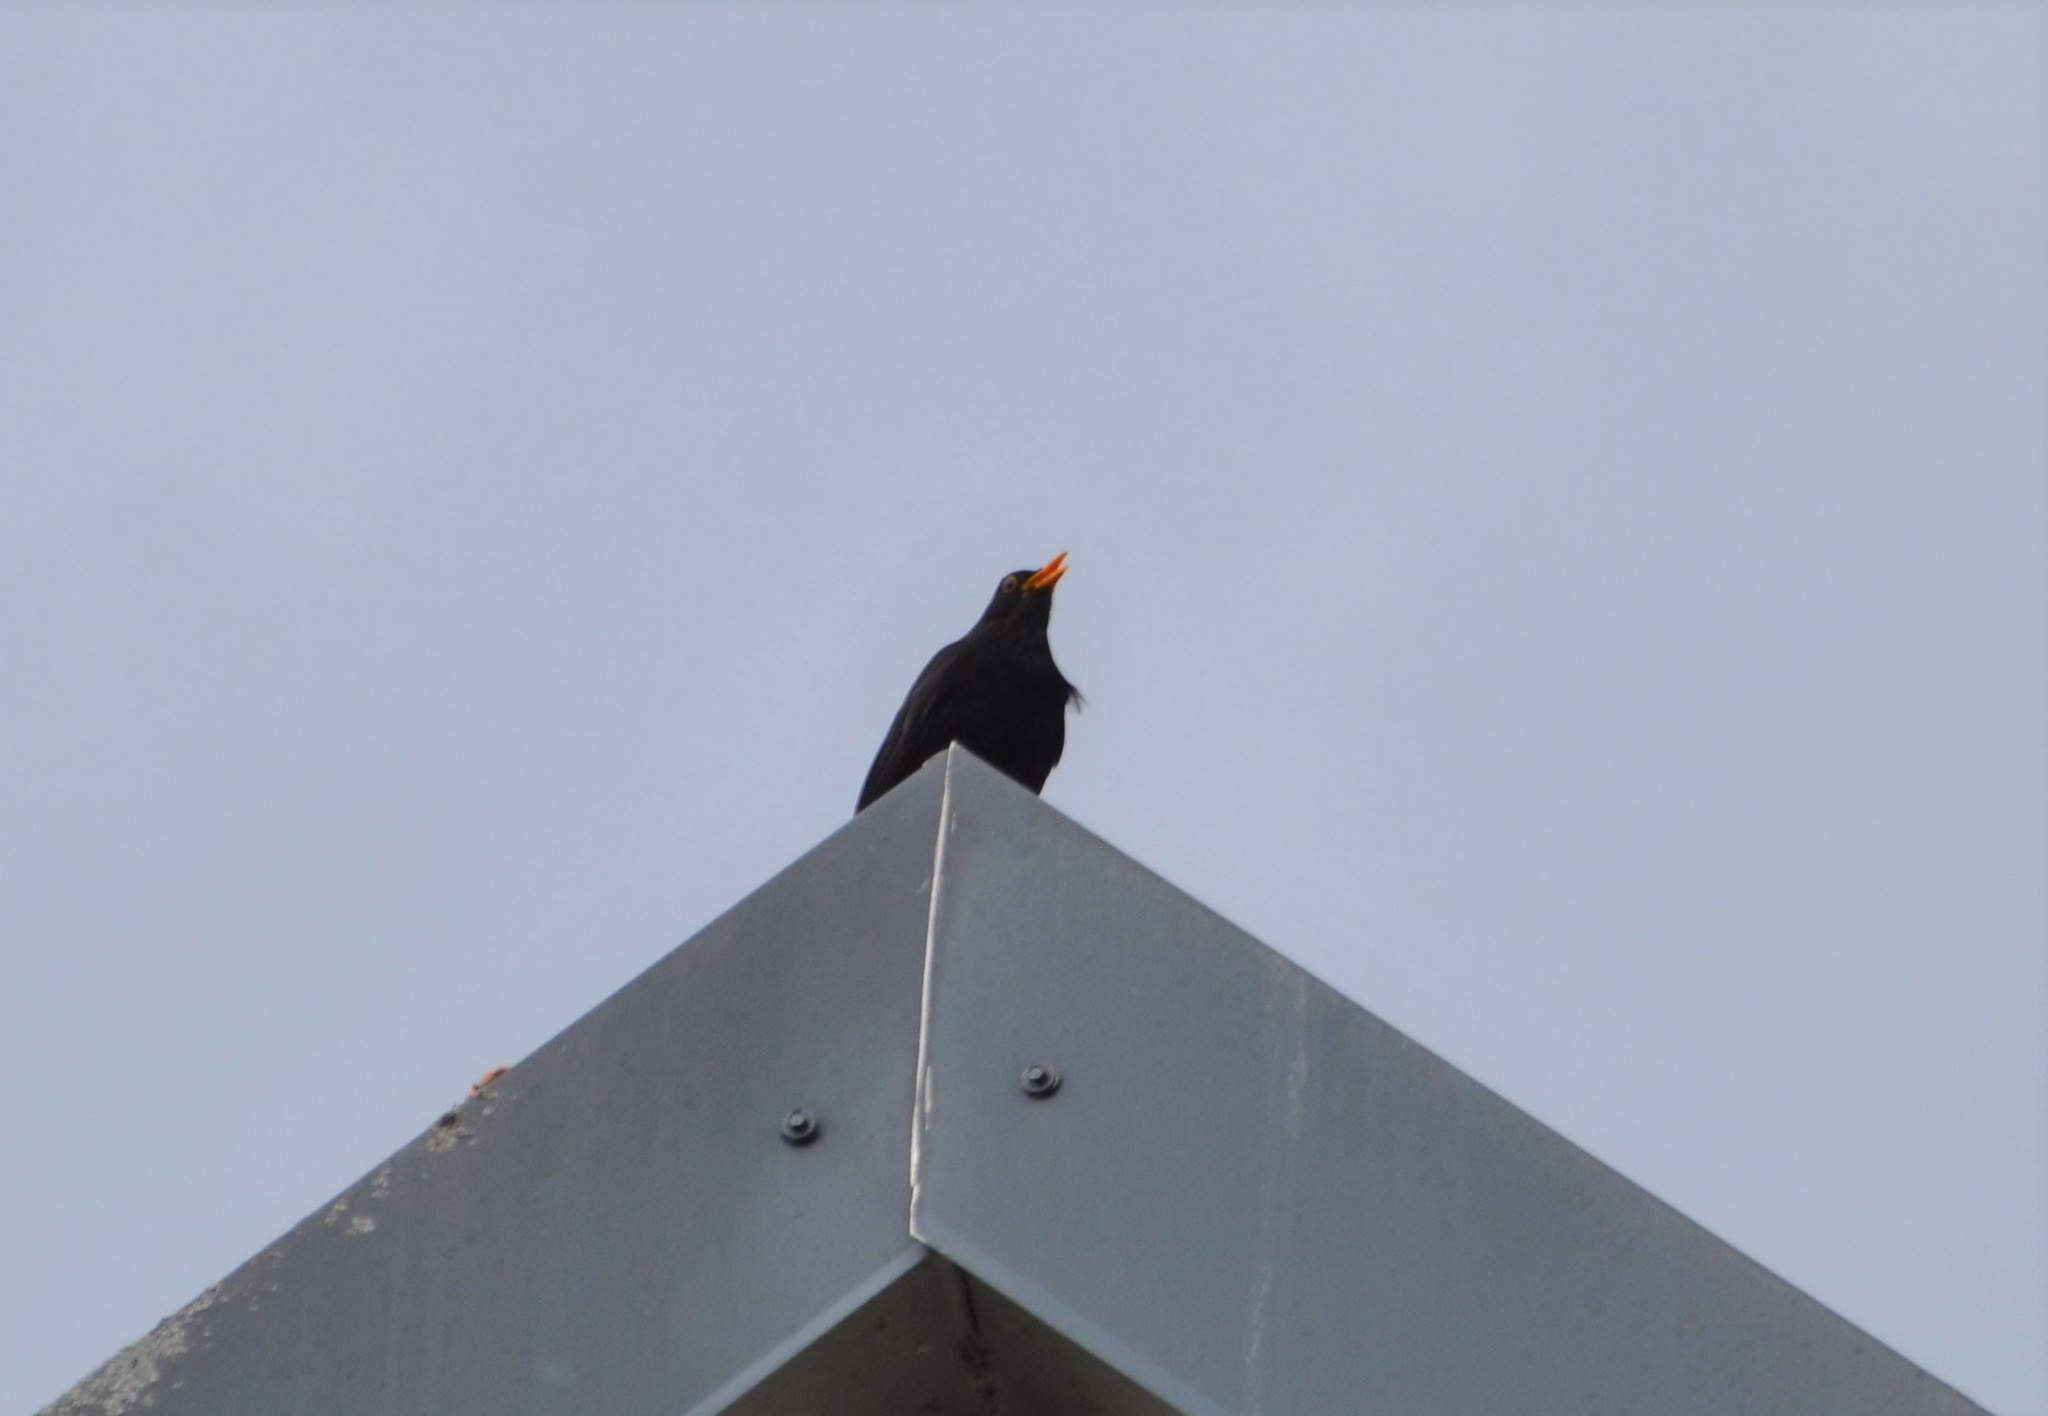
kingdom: Animalia
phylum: Chordata
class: Aves
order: Passeriformes
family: Turdidae
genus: Turdus
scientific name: Turdus merula
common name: Common blackbird
